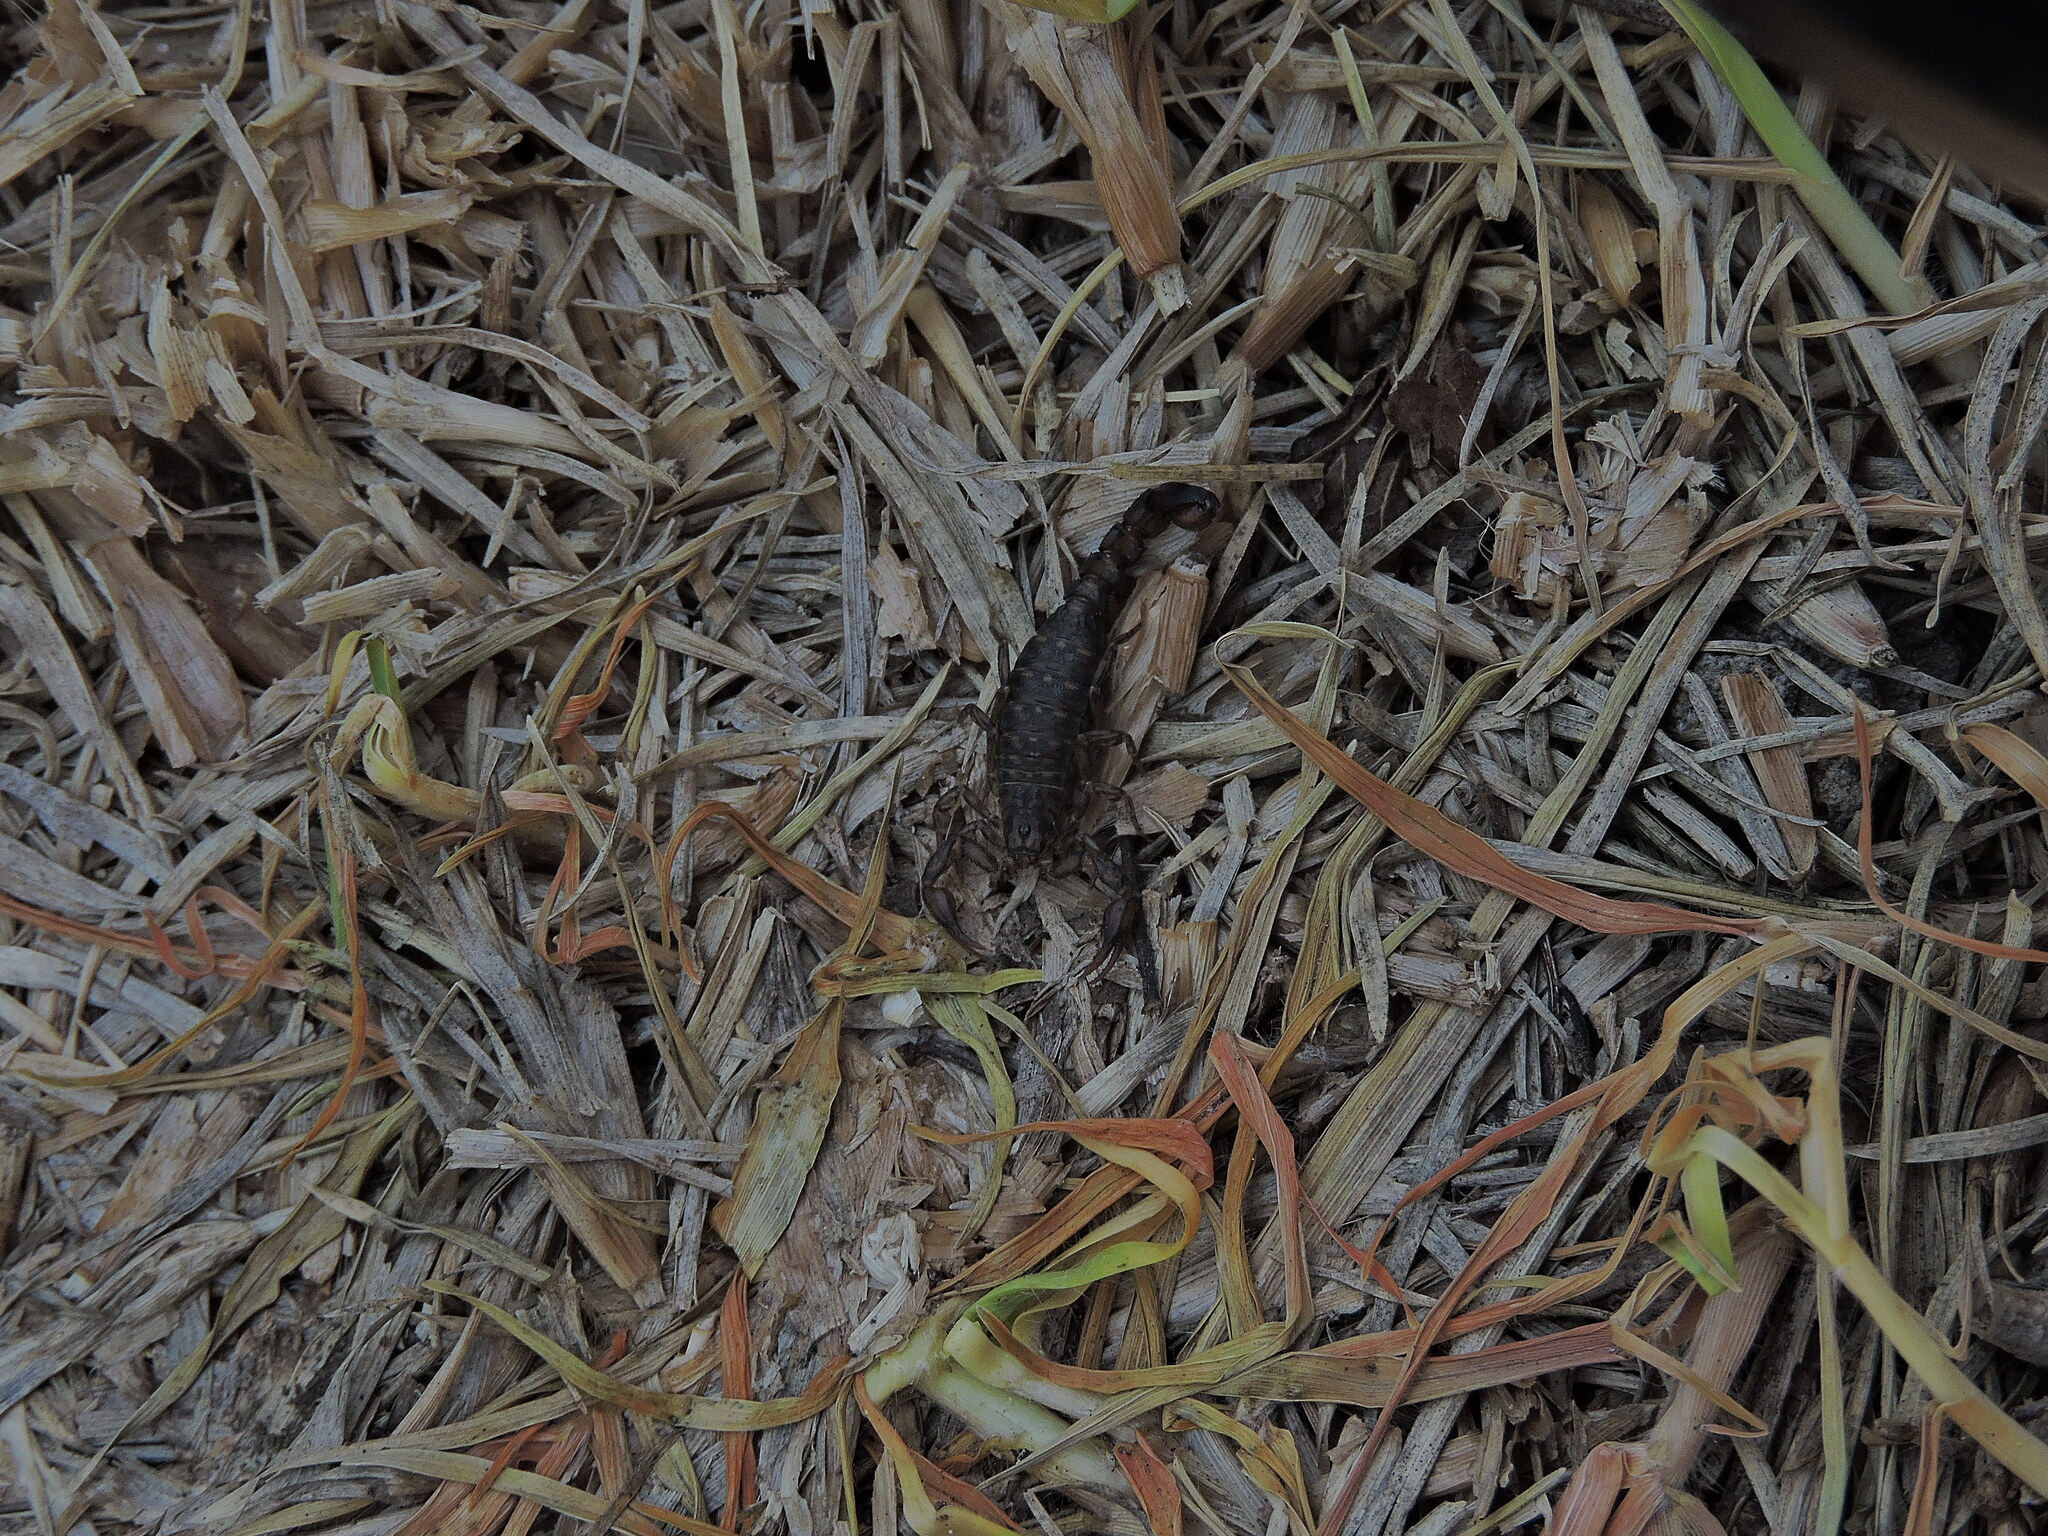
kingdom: Animalia
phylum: Arthropoda
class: Arachnida
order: Scorpiones
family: Vaejovidae
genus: Vaejovis
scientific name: Vaejovis mexicanus
